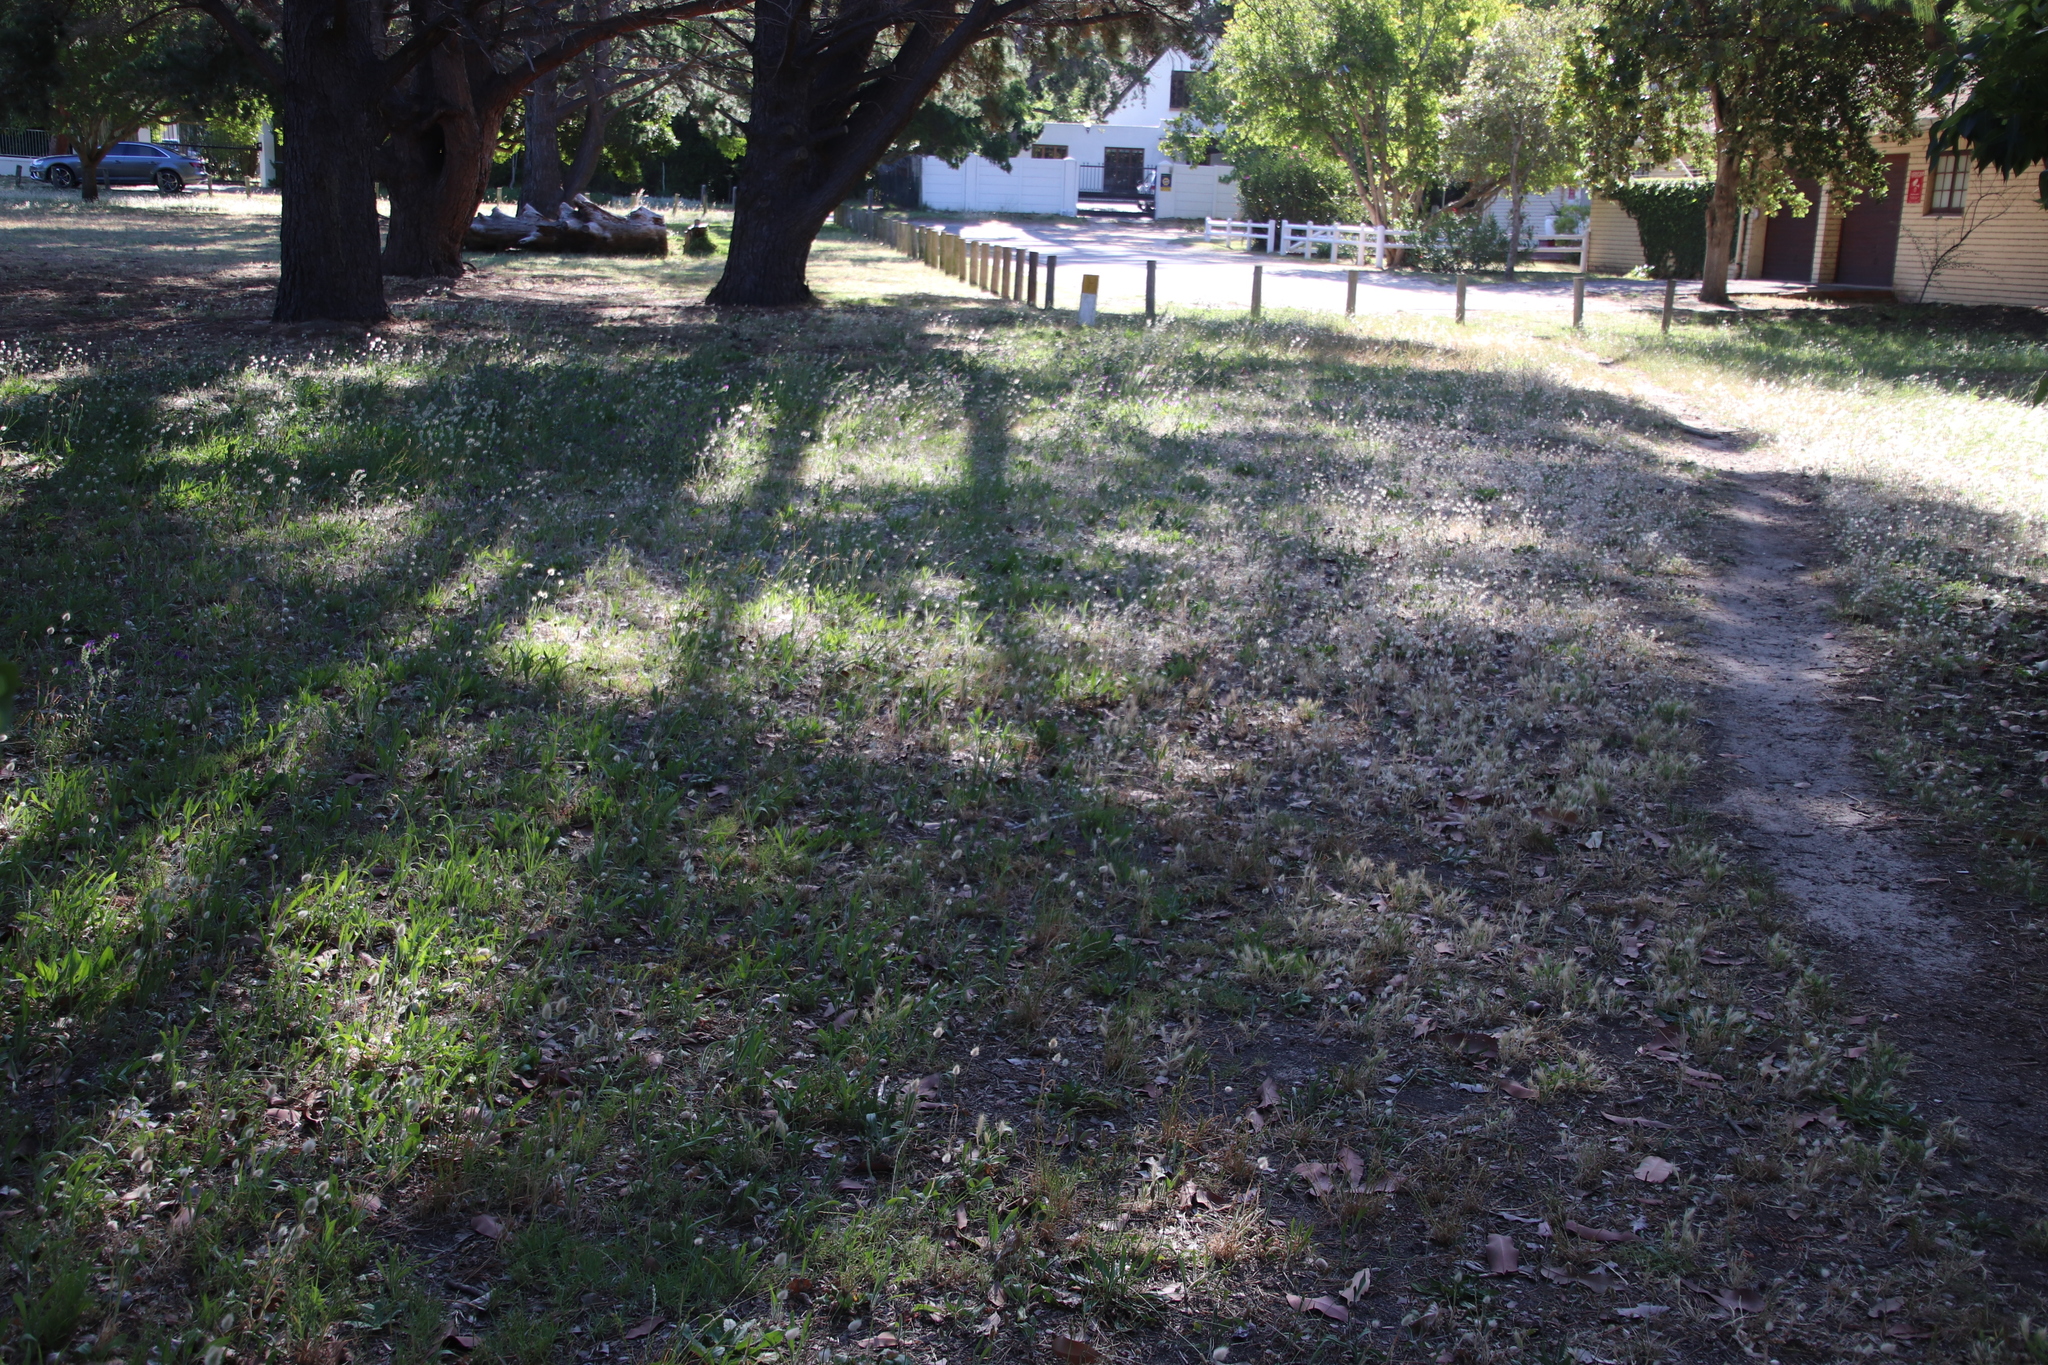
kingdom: Plantae
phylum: Tracheophyta
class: Liliopsida
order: Poales
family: Poaceae
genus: Lagurus
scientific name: Lagurus ovatus
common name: Hare's-tail
